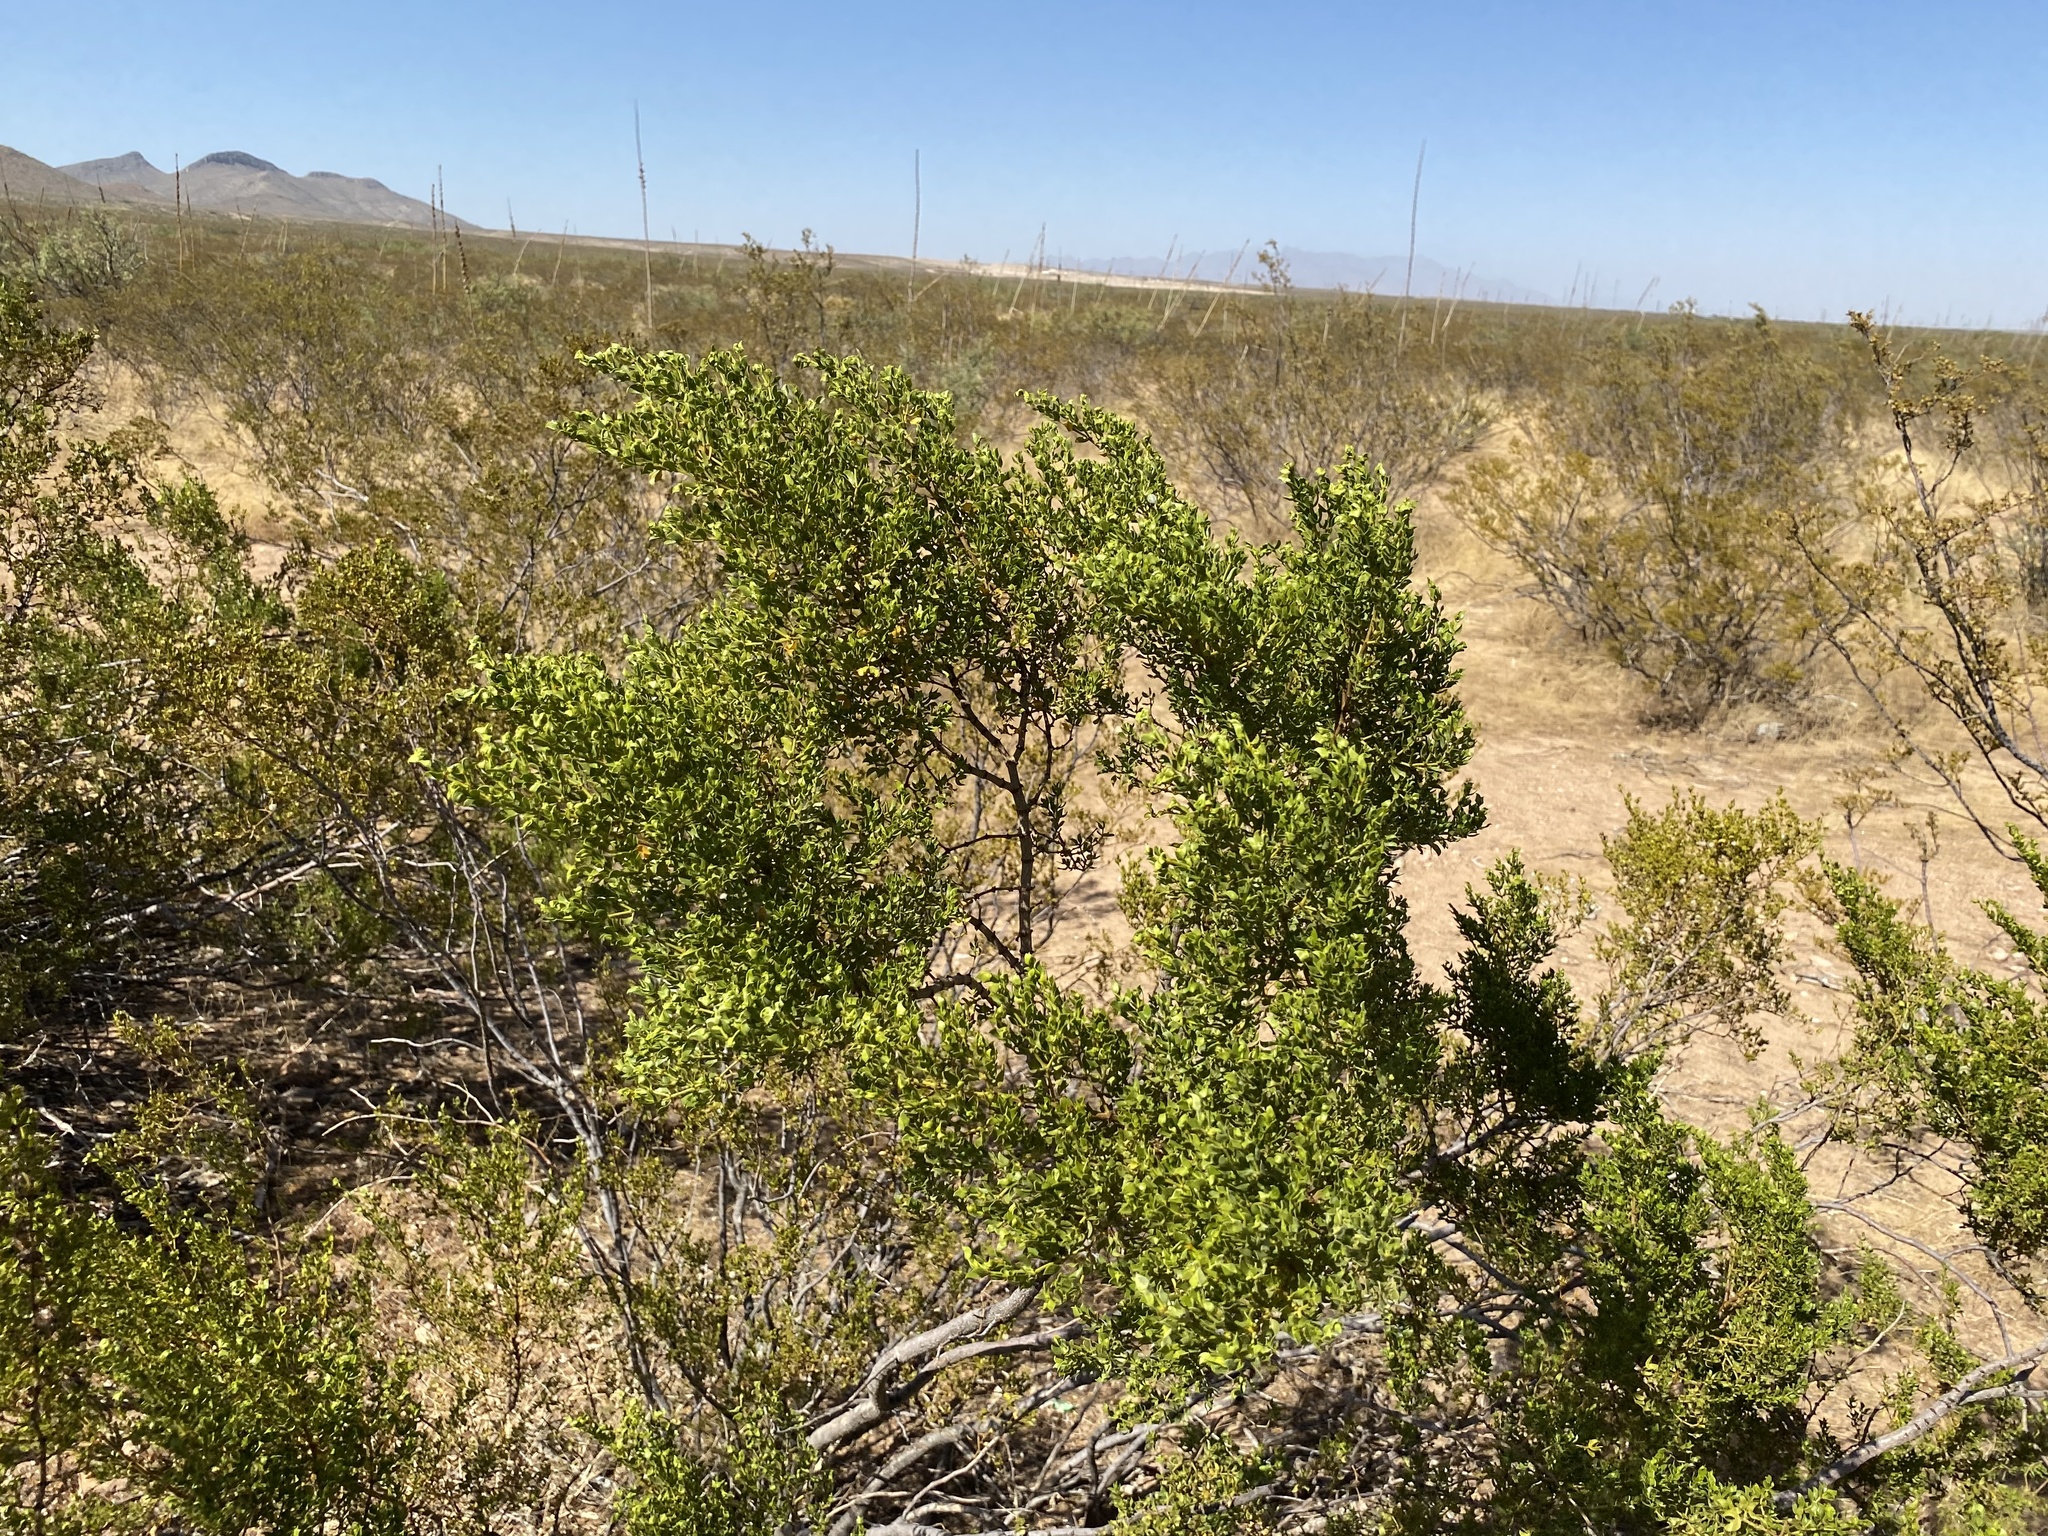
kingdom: Plantae
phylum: Tracheophyta
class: Magnoliopsida
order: Zygophyllales
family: Zygophyllaceae
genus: Larrea
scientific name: Larrea tridentata
